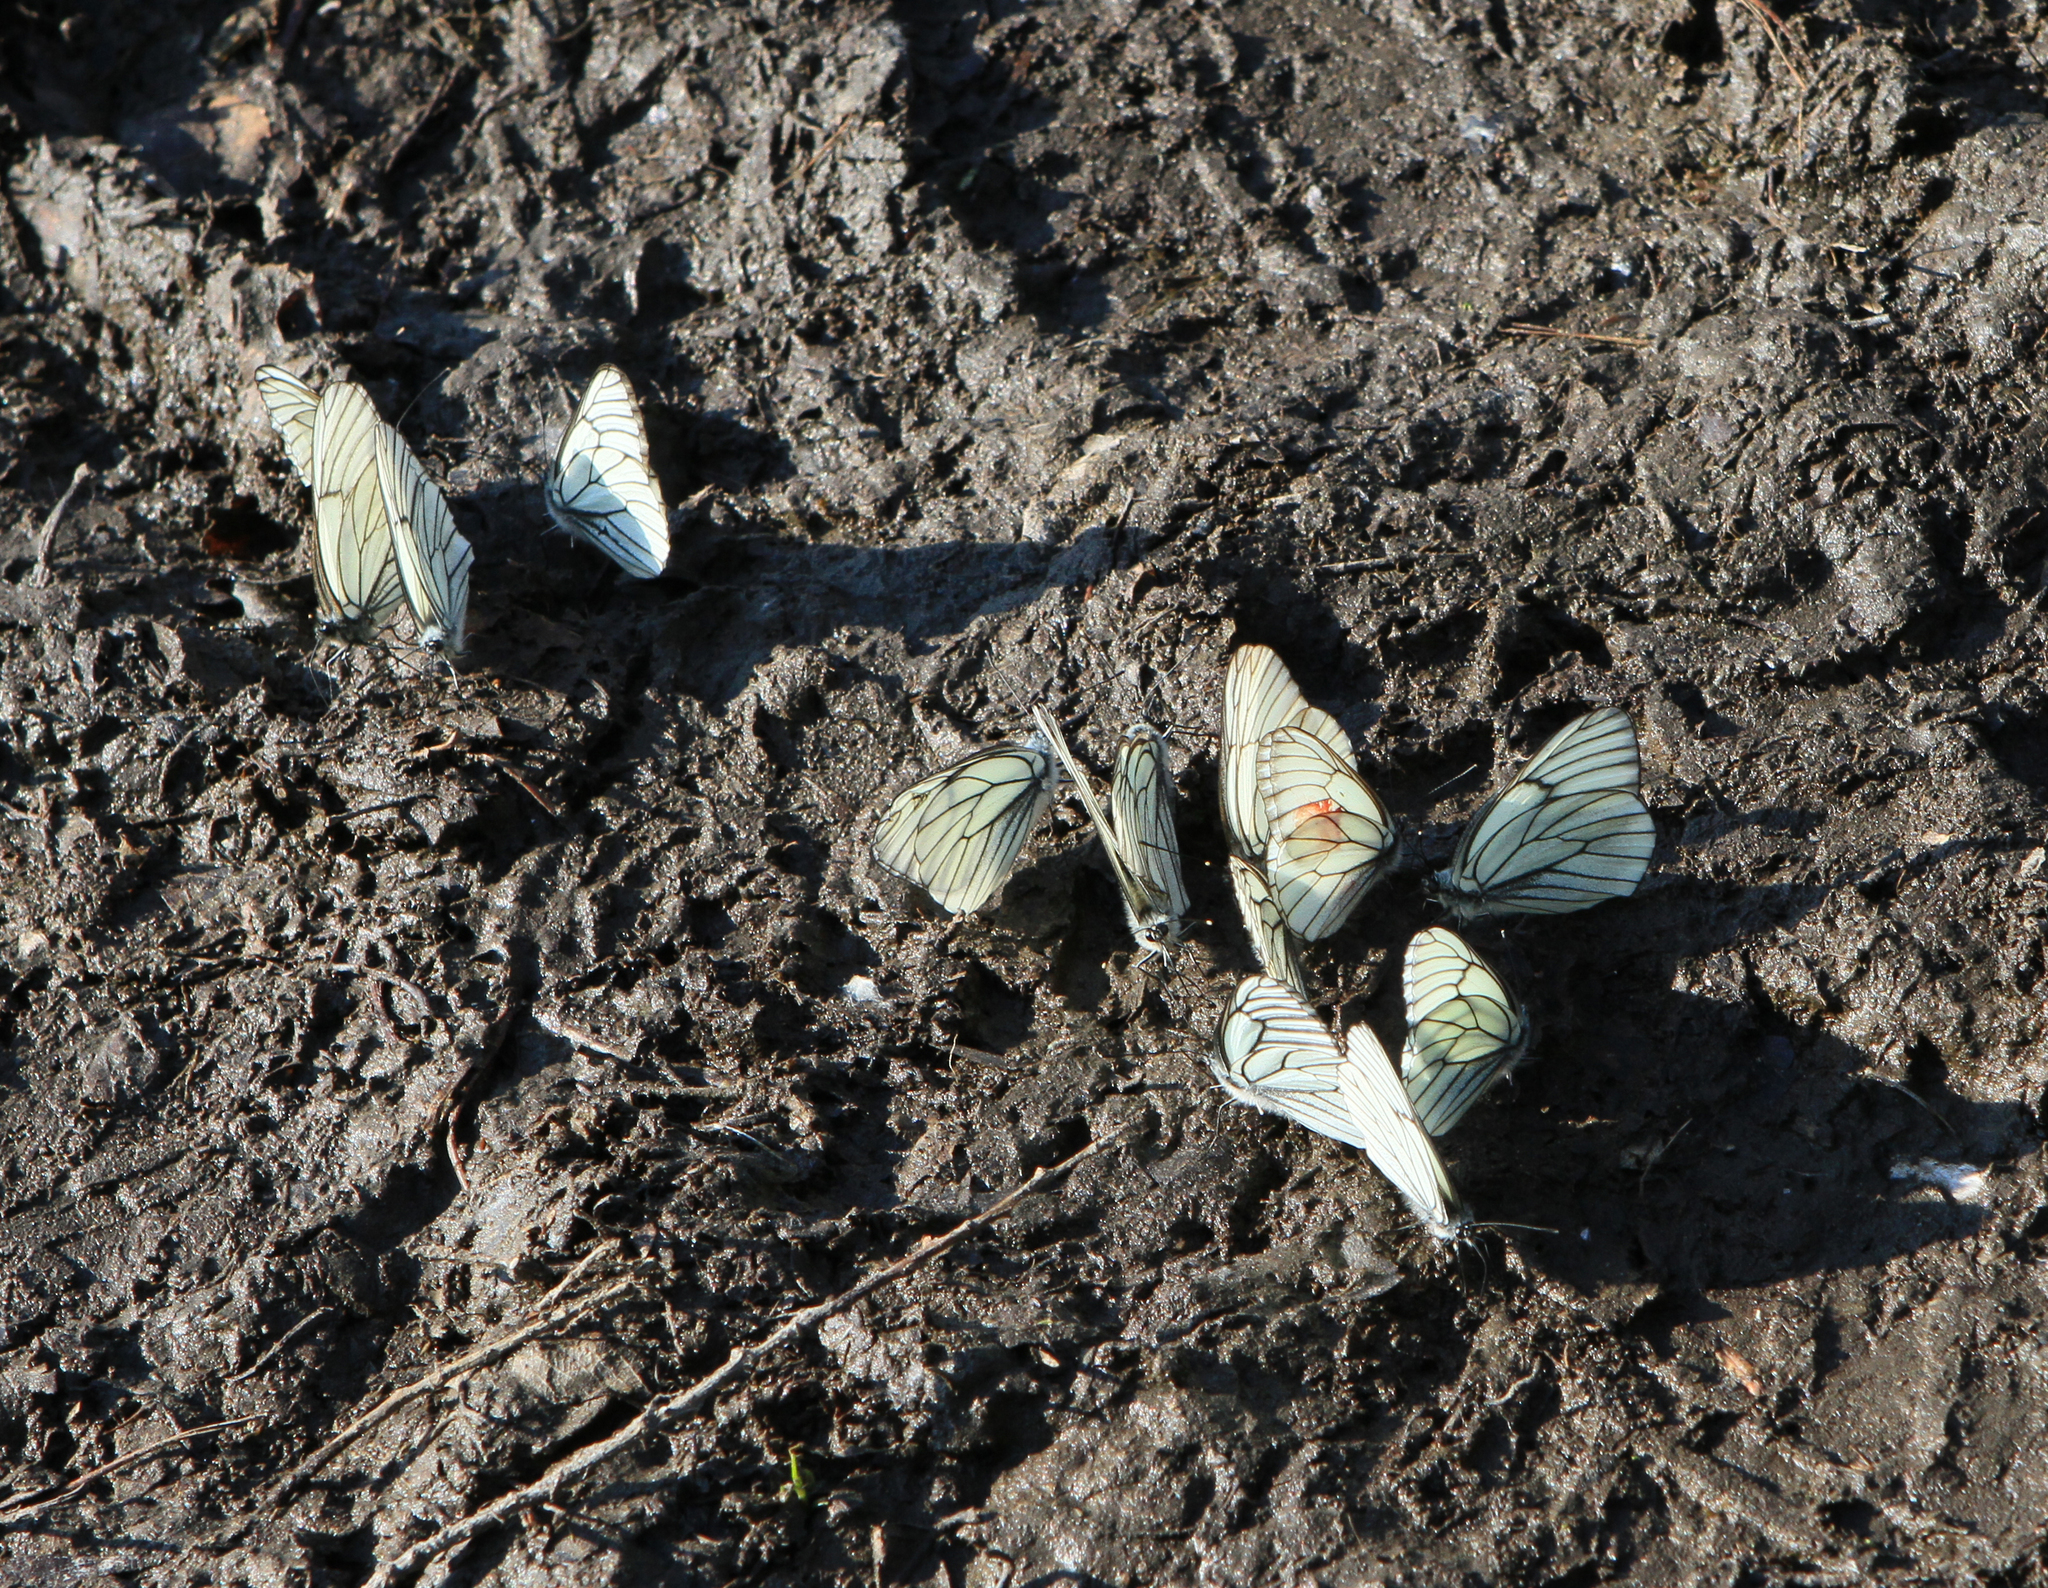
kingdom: Animalia
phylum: Arthropoda
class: Insecta
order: Lepidoptera
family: Pieridae
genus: Aporia
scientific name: Aporia crataegi
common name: Black-veined white
